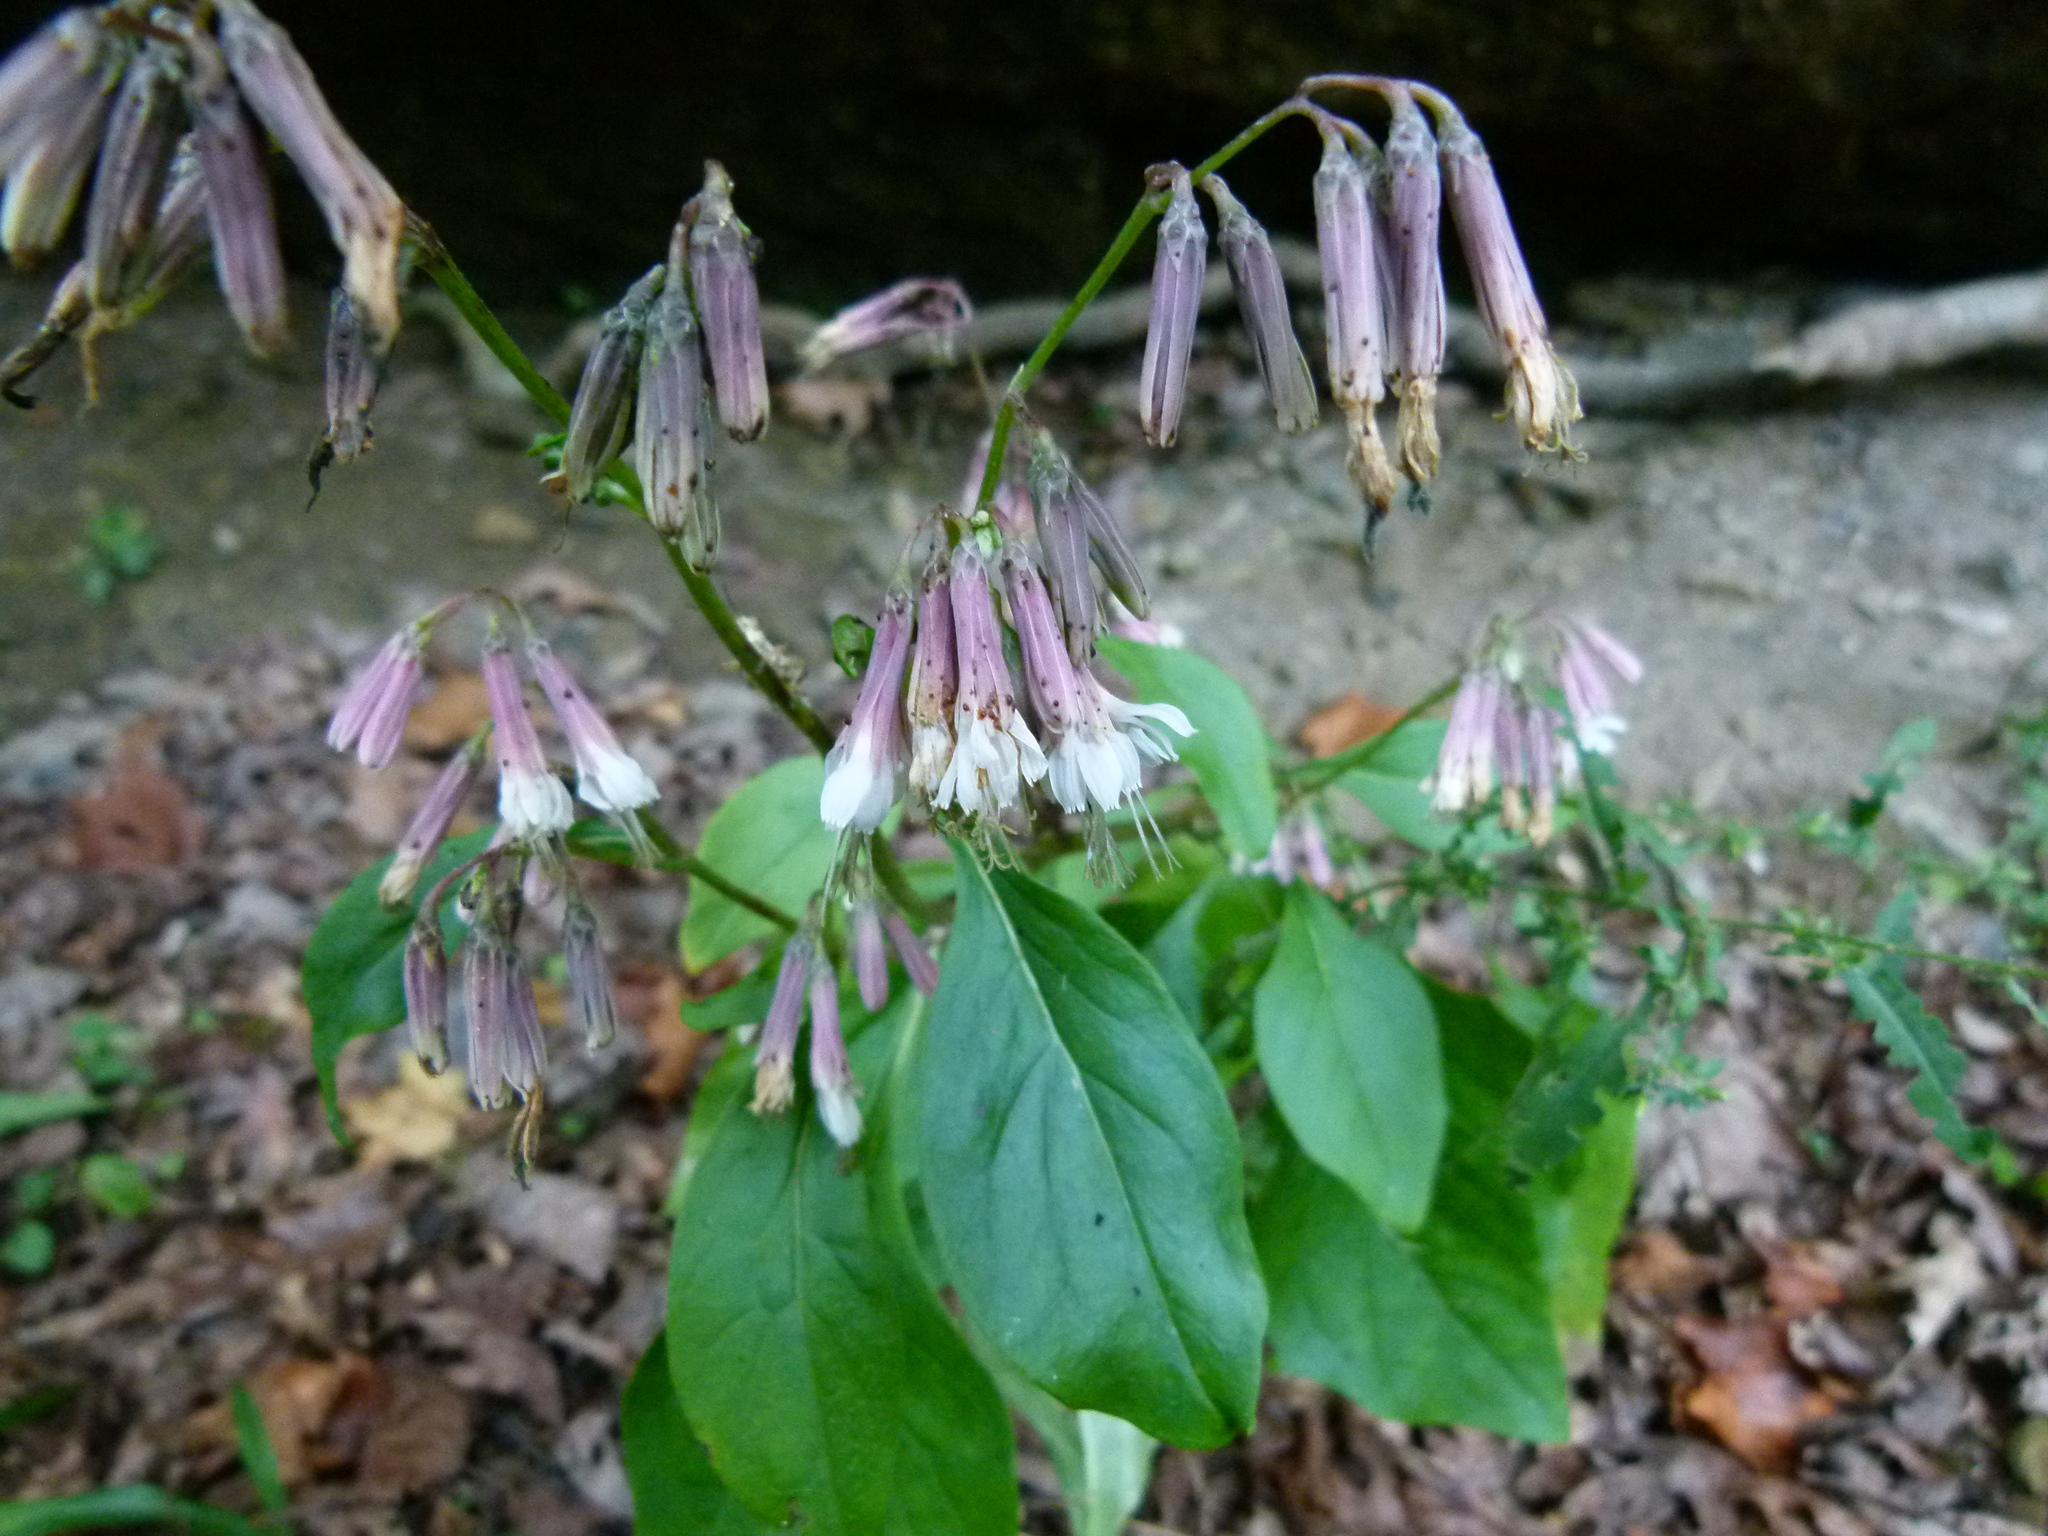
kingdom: Plantae
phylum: Tracheophyta
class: Magnoliopsida
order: Asterales
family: Asteraceae
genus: Nabalus
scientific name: Nabalus albus
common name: White rattlesnakeroot
